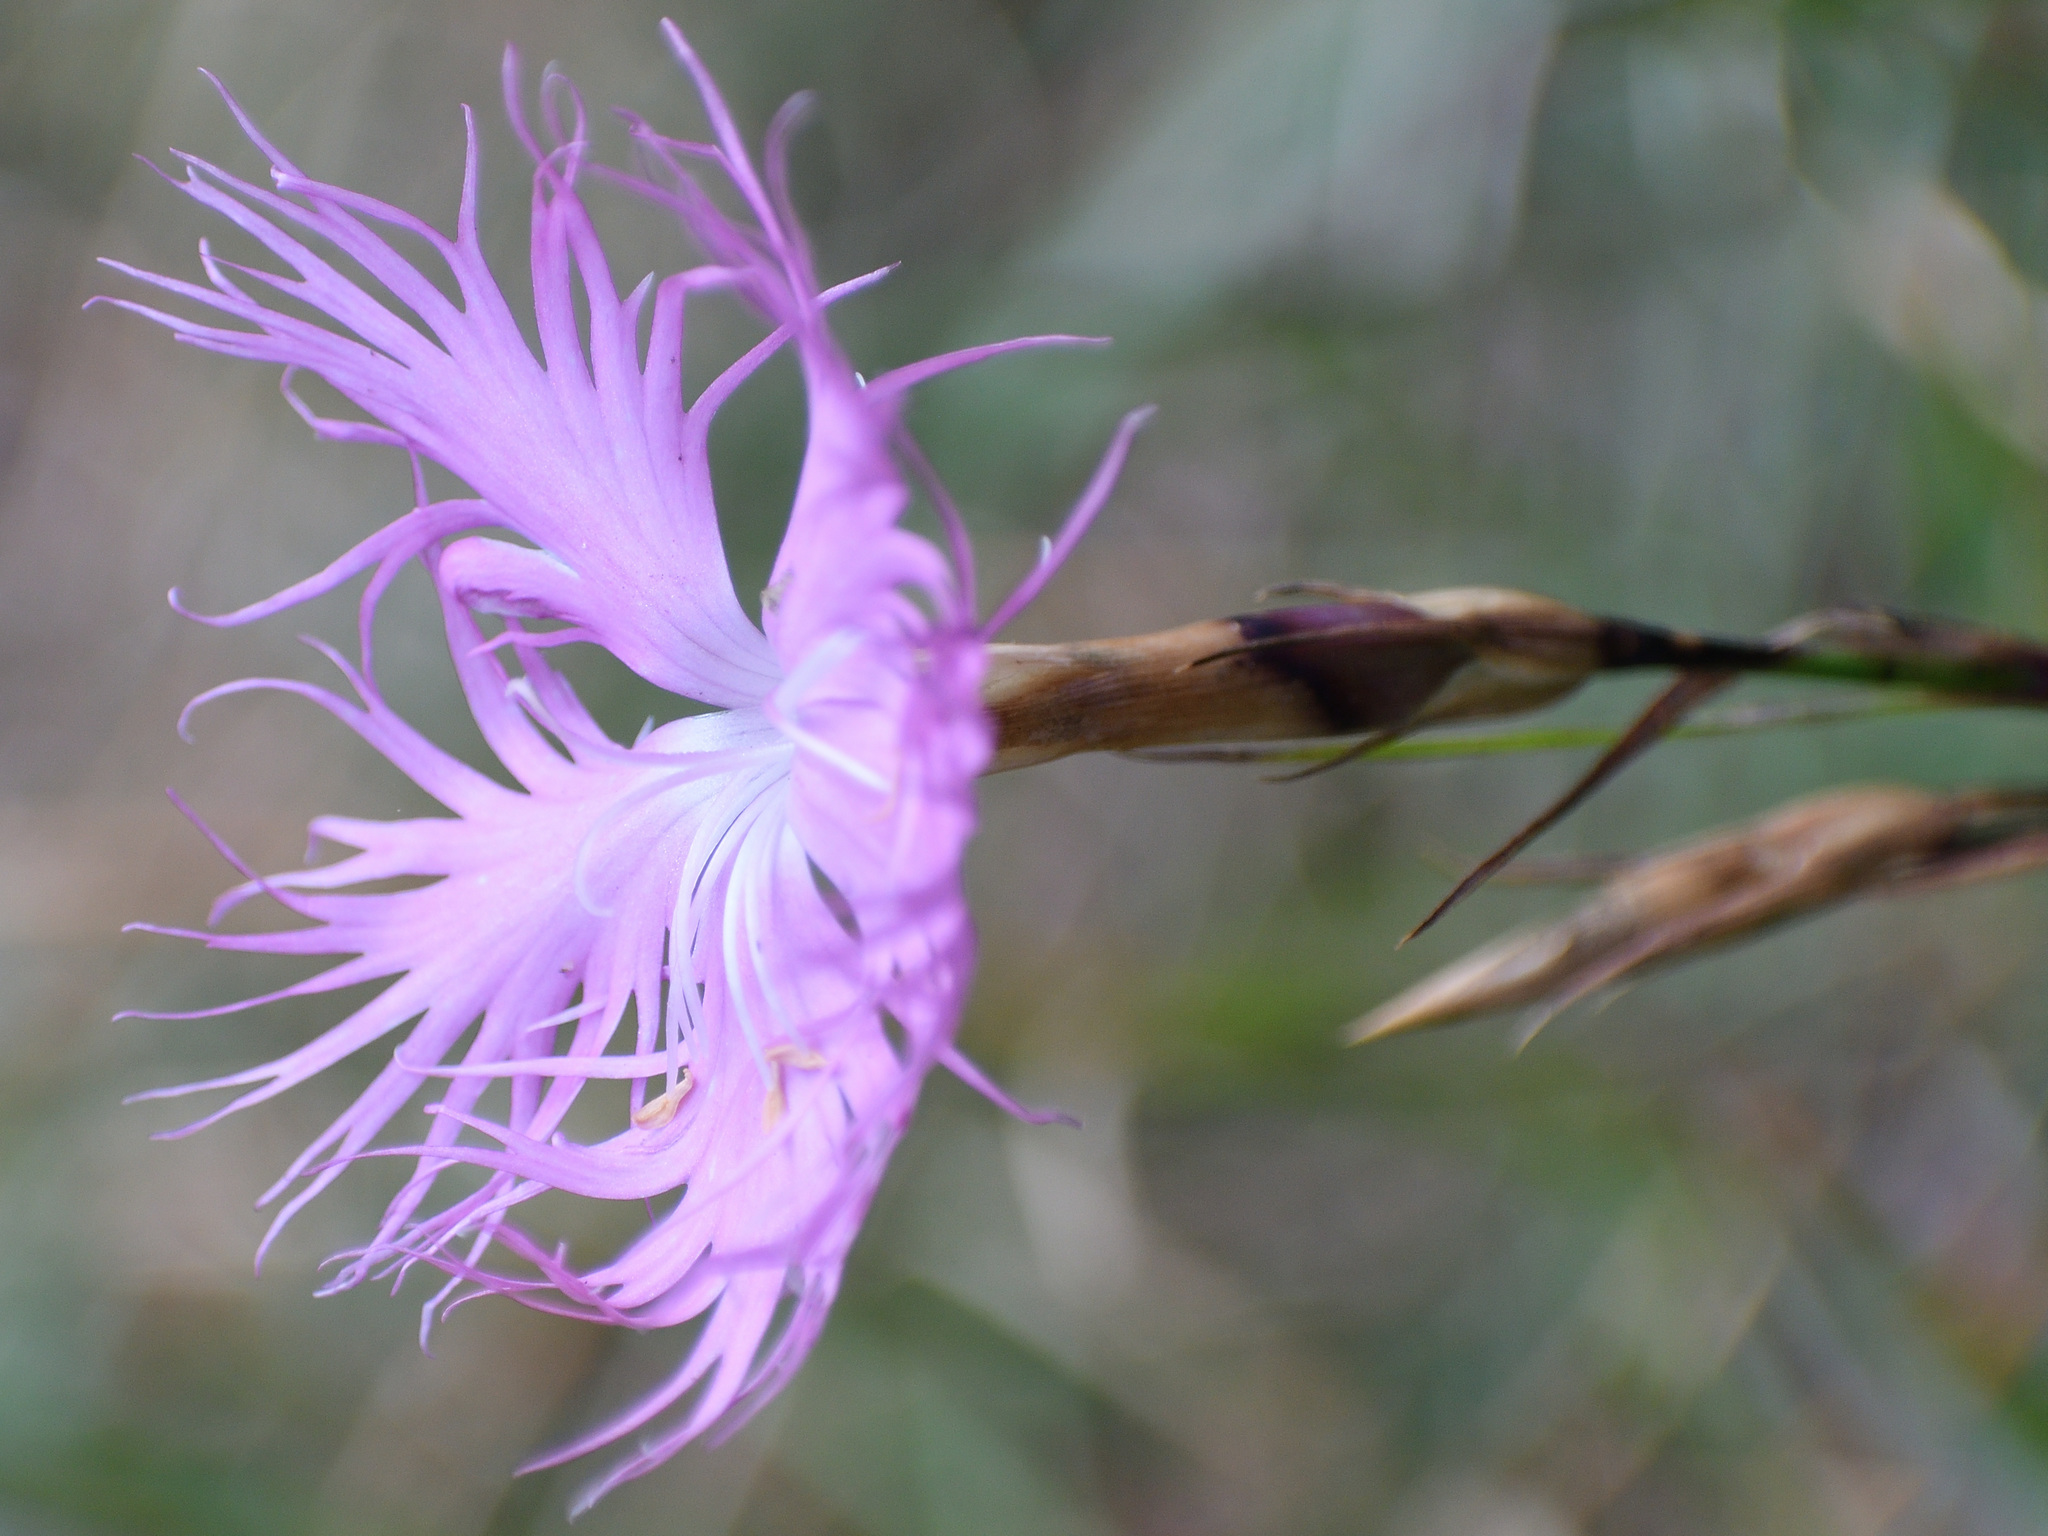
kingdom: Plantae
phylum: Tracheophyta
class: Magnoliopsida
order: Caryophyllales
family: Caryophyllaceae
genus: Dianthus
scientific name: Dianthus hyssopifolius
